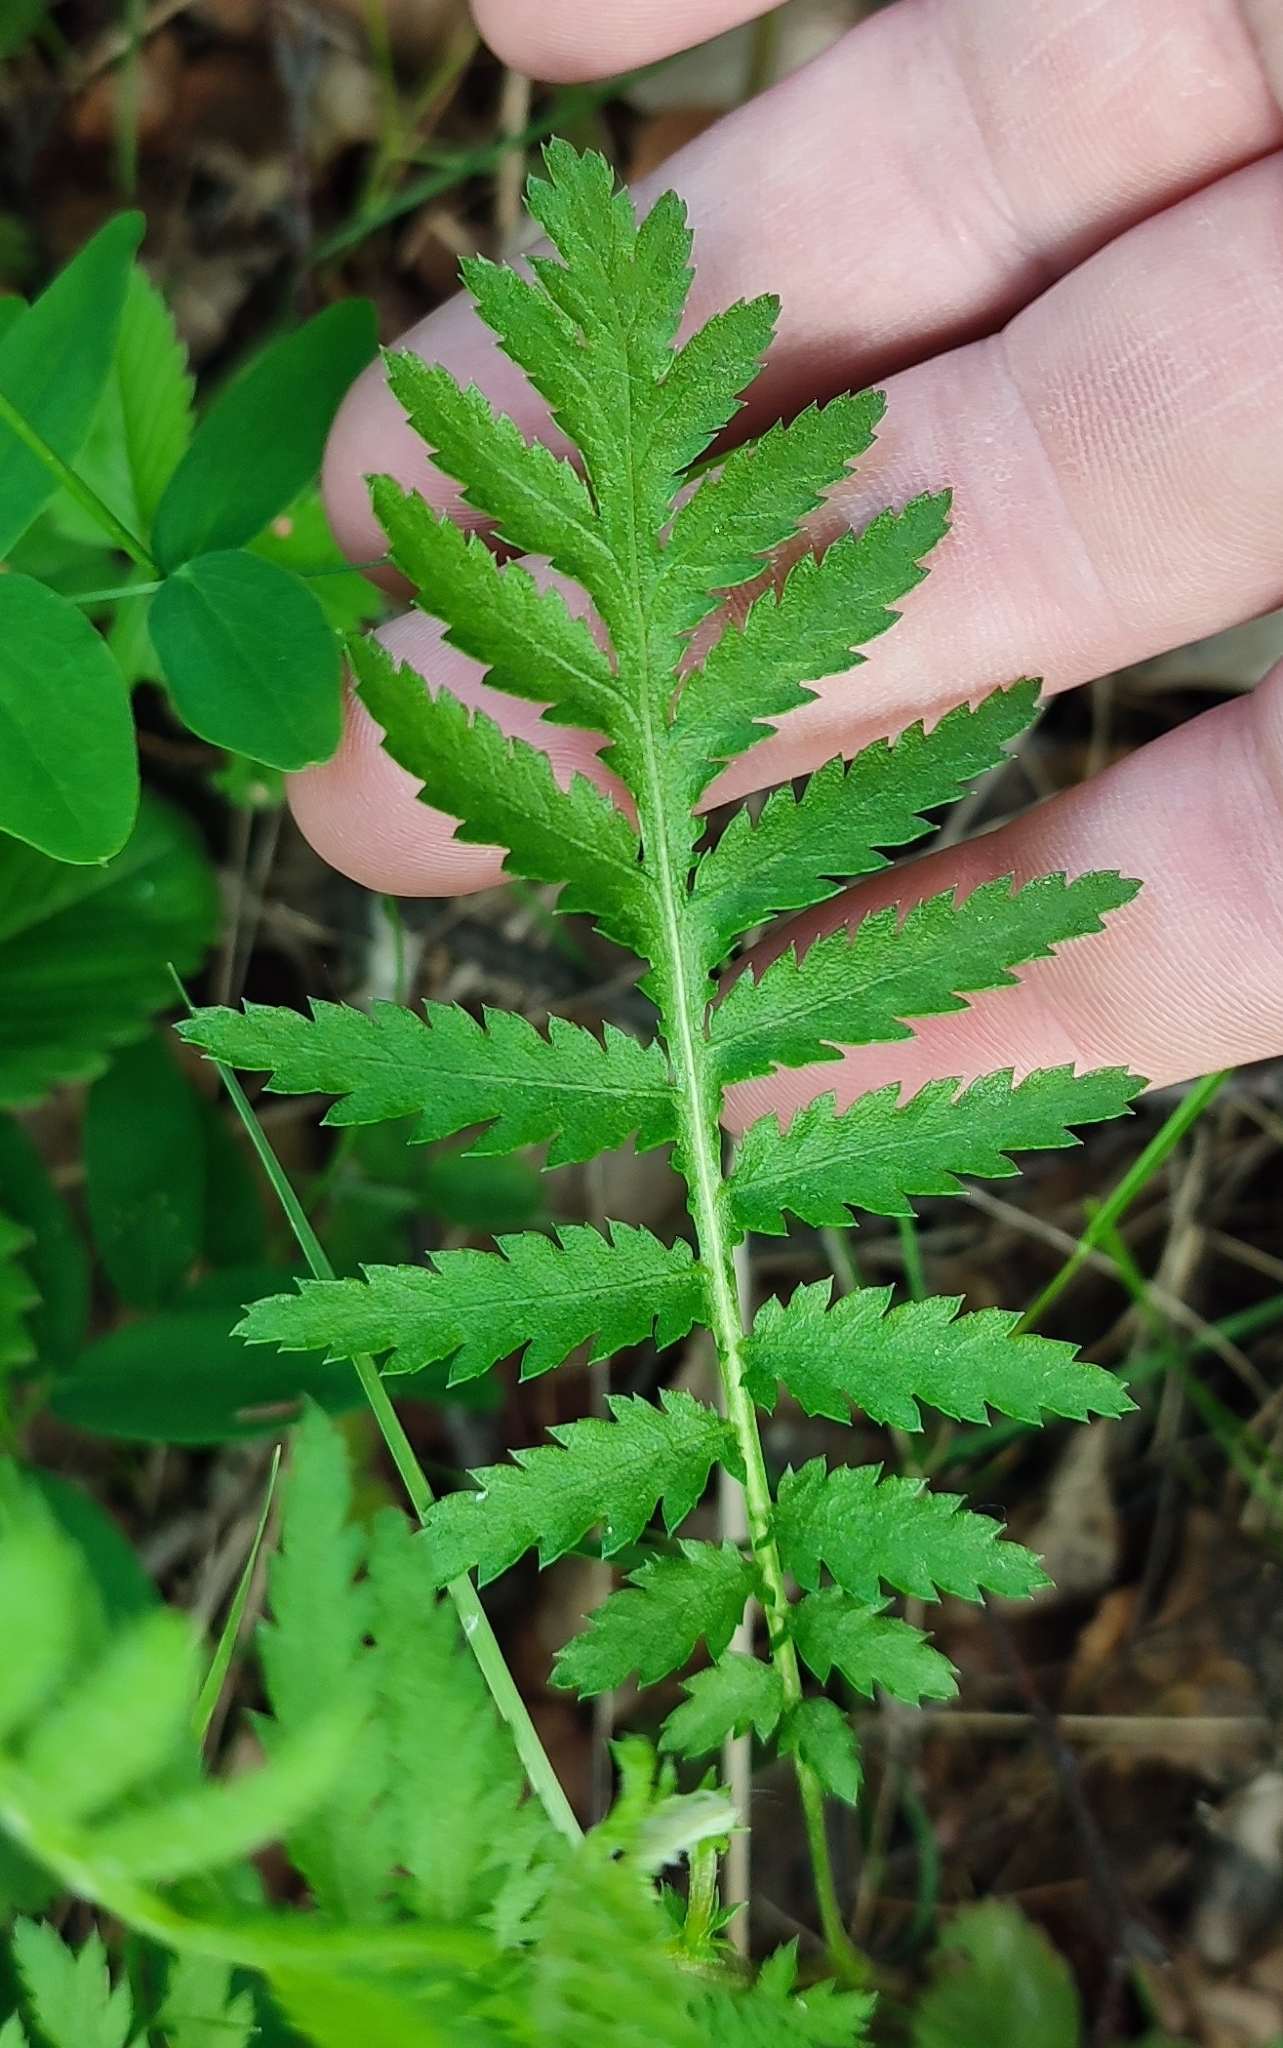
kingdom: Plantae
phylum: Tracheophyta
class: Magnoliopsida
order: Asterales
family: Asteraceae
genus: Tanacetum
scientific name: Tanacetum vulgare
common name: Common tansy
